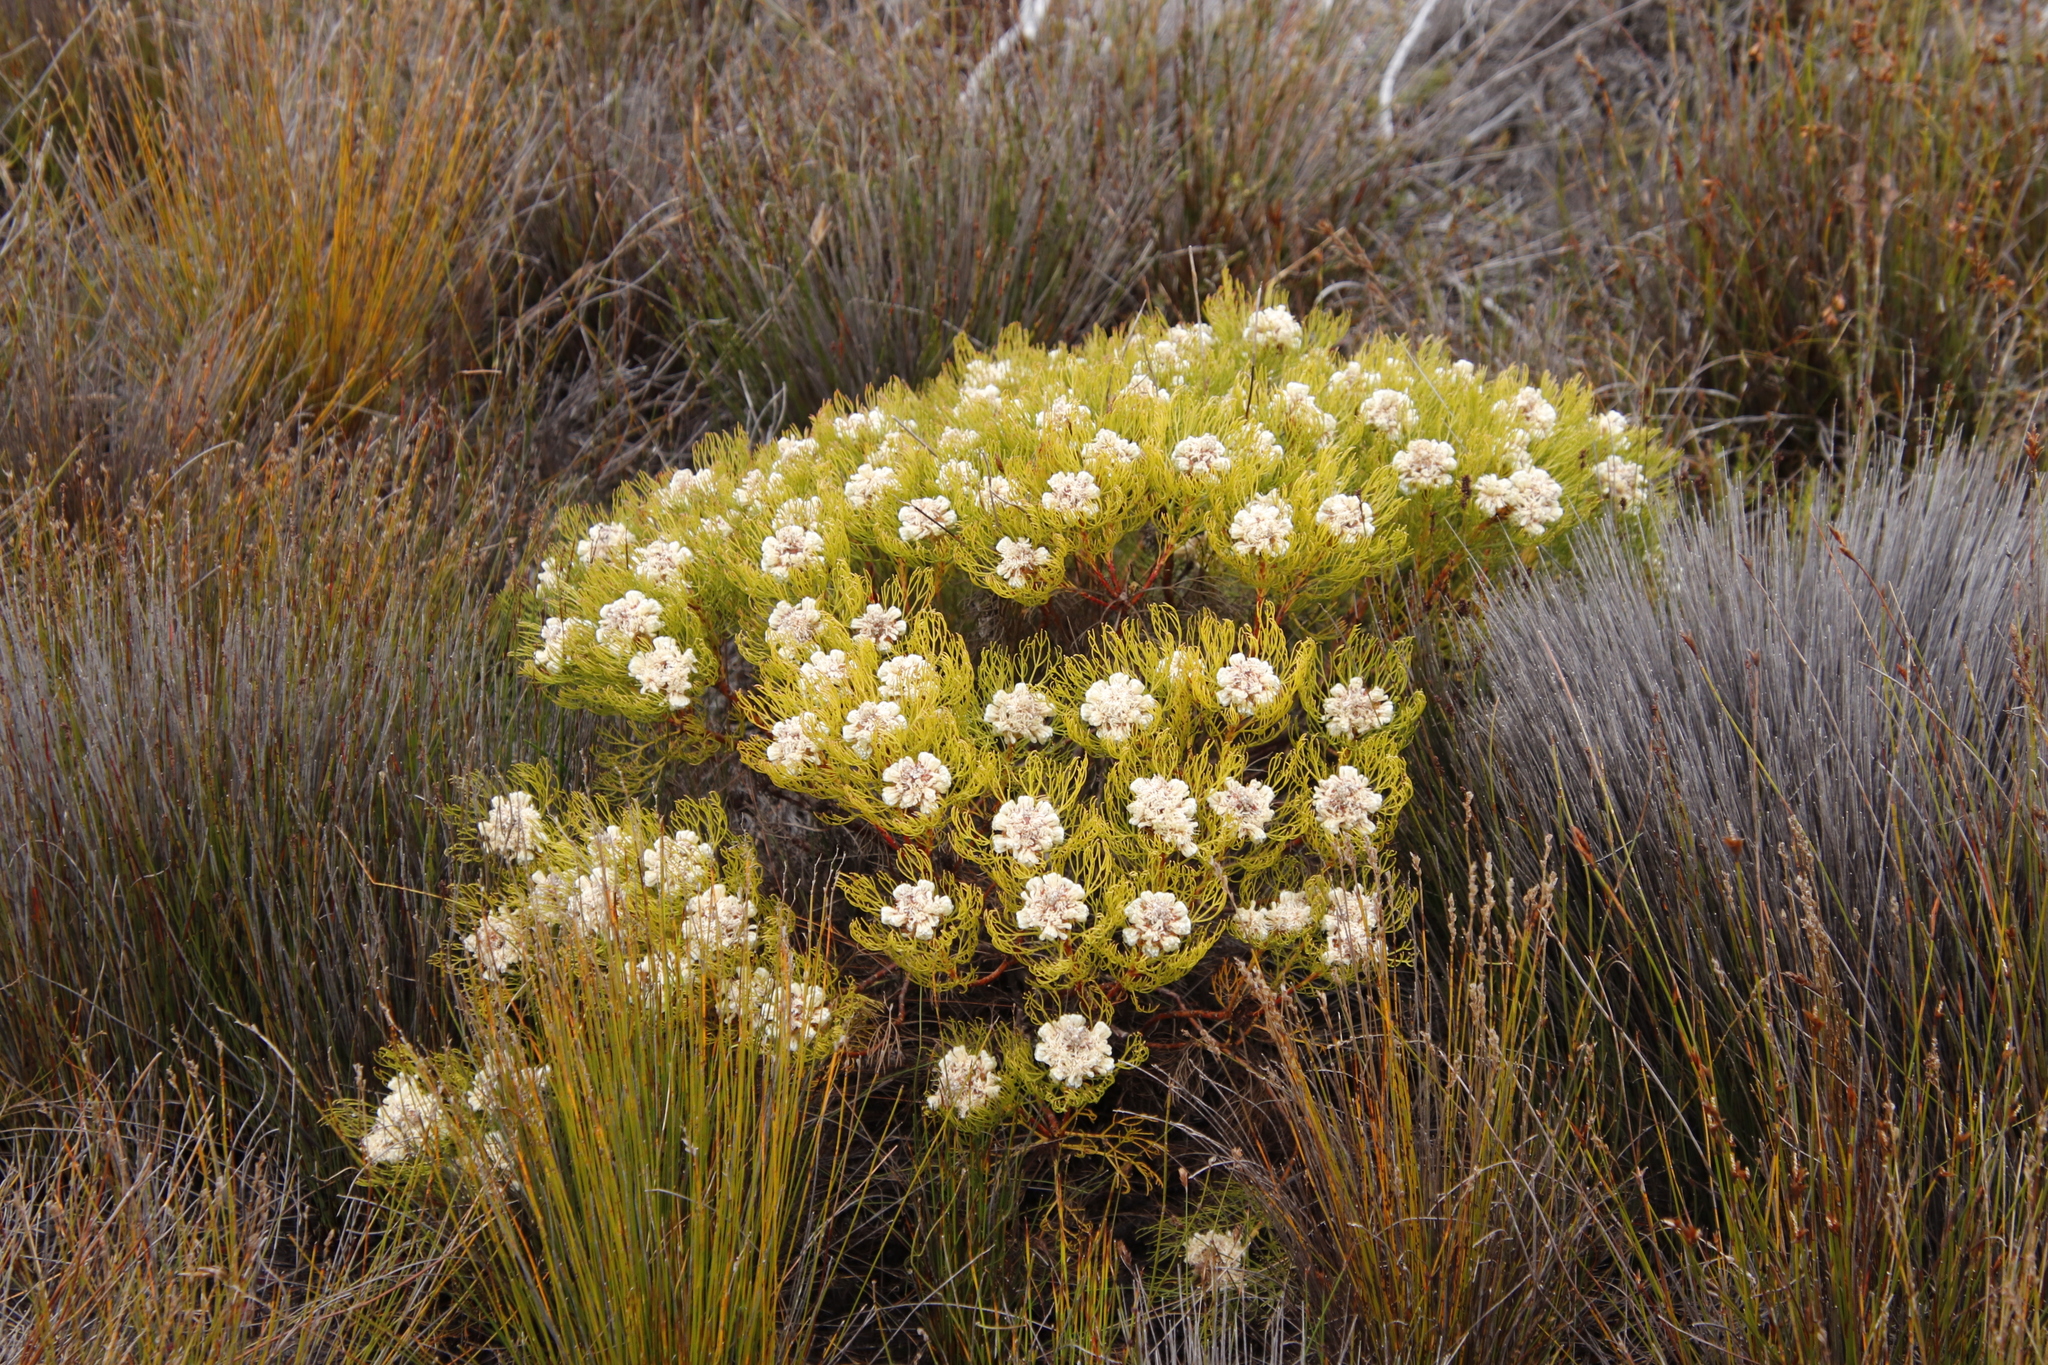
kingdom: Plantae
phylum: Tracheophyta
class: Magnoliopsida
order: Proteales
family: Proteaceae
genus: Serruria
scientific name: Serruria glomerata
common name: Cluster spiderhead
